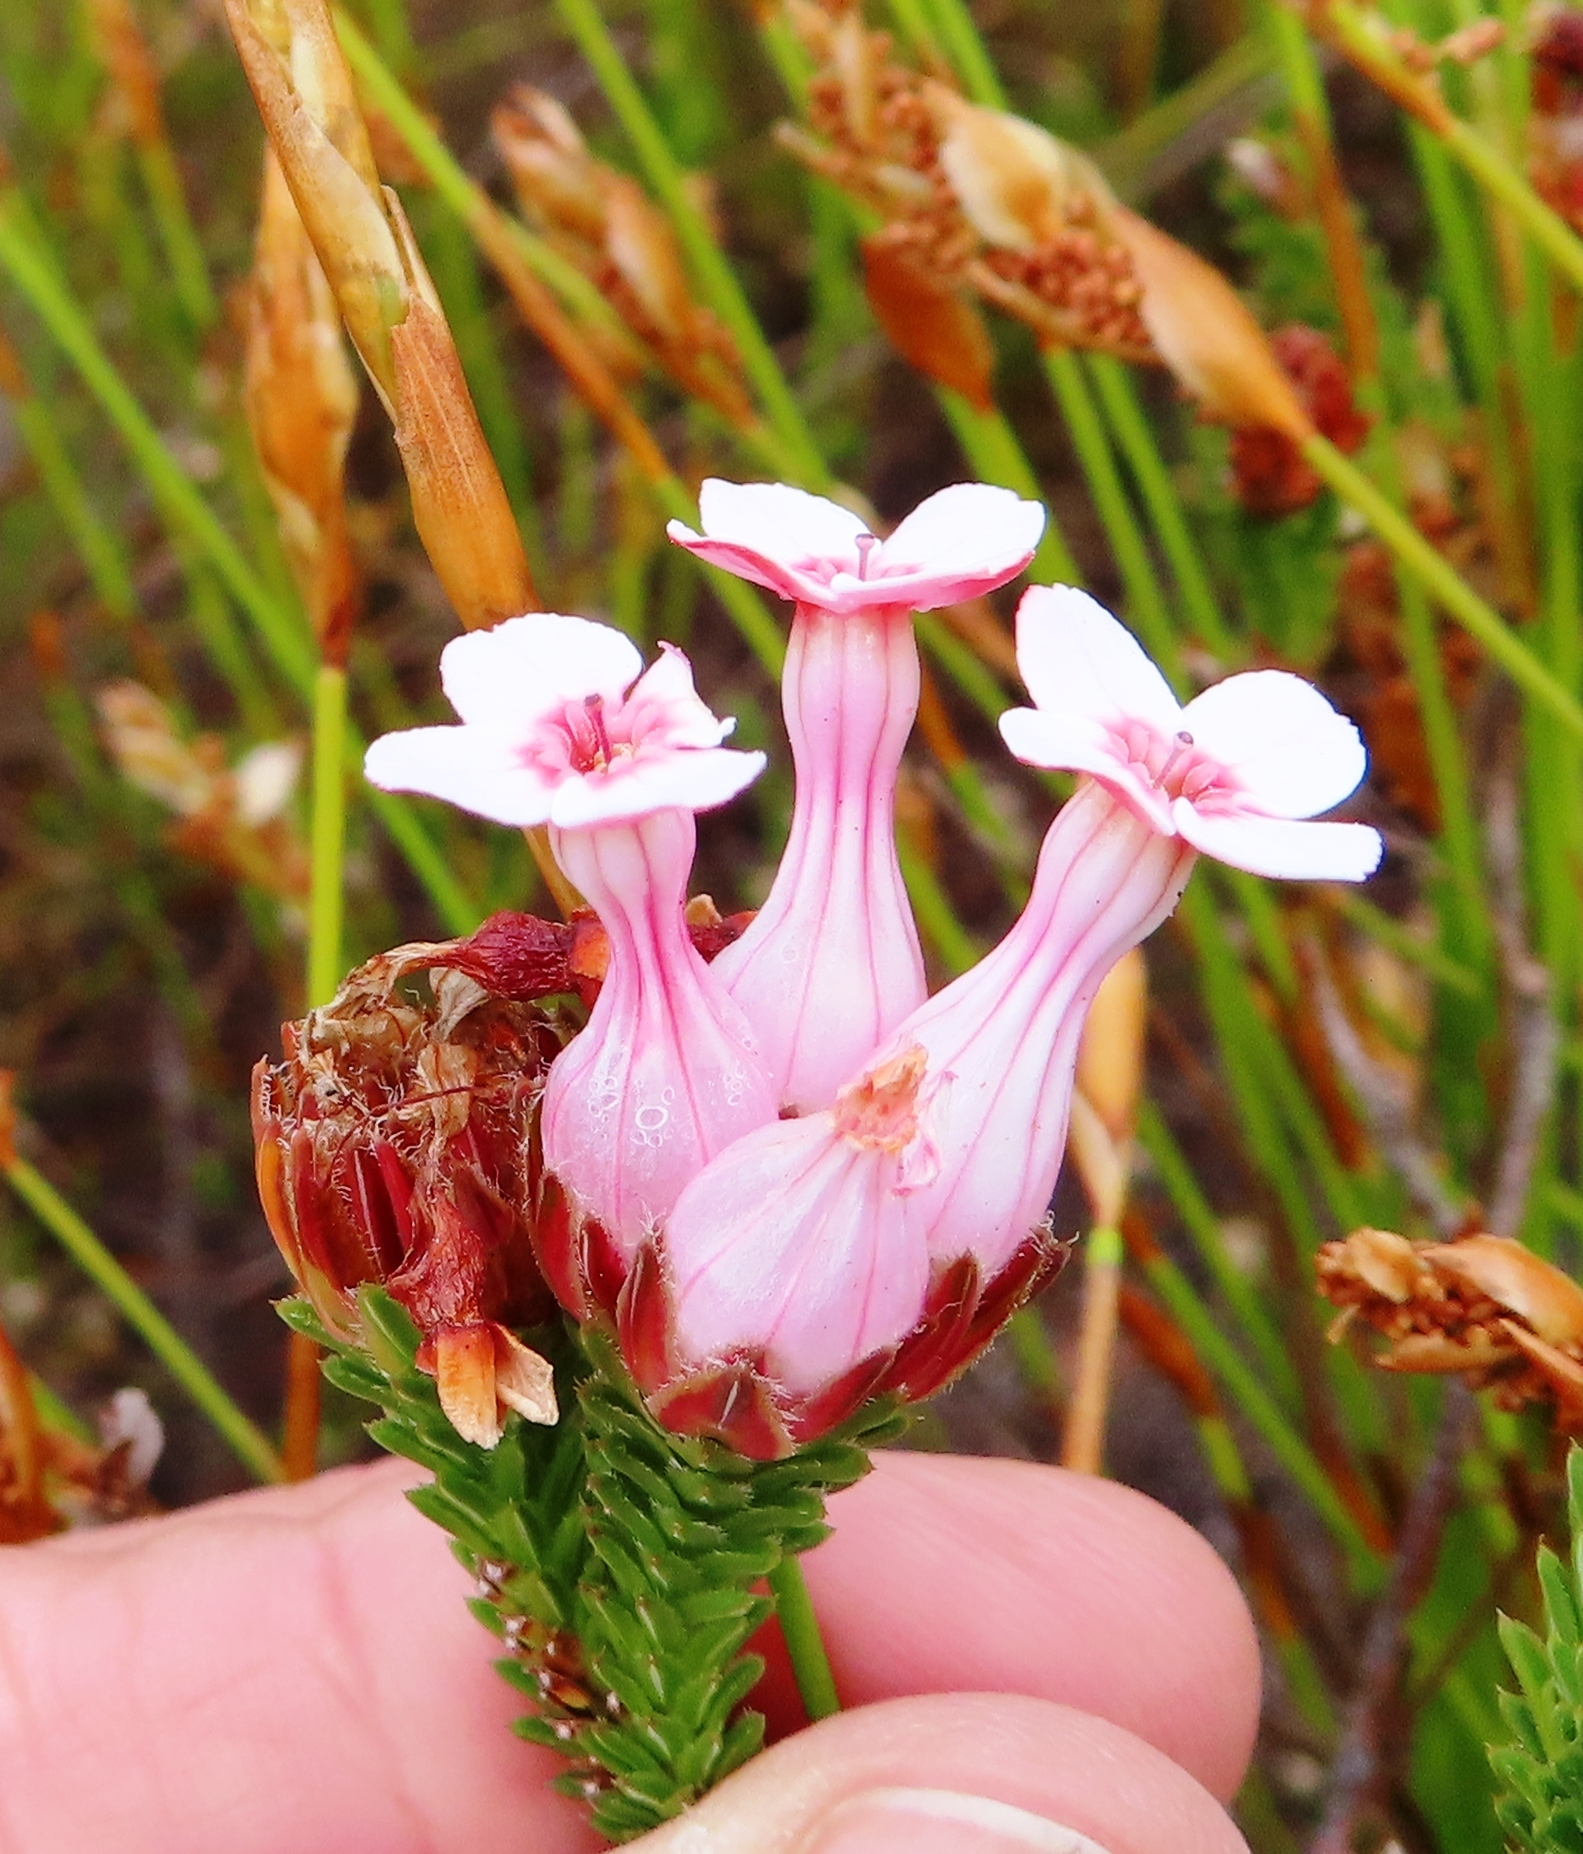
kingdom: Plantae
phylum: Tracheophyta
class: Magnoliopsida
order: Ericales
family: Ericaceae
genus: Erica
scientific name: Erica ampullacea
